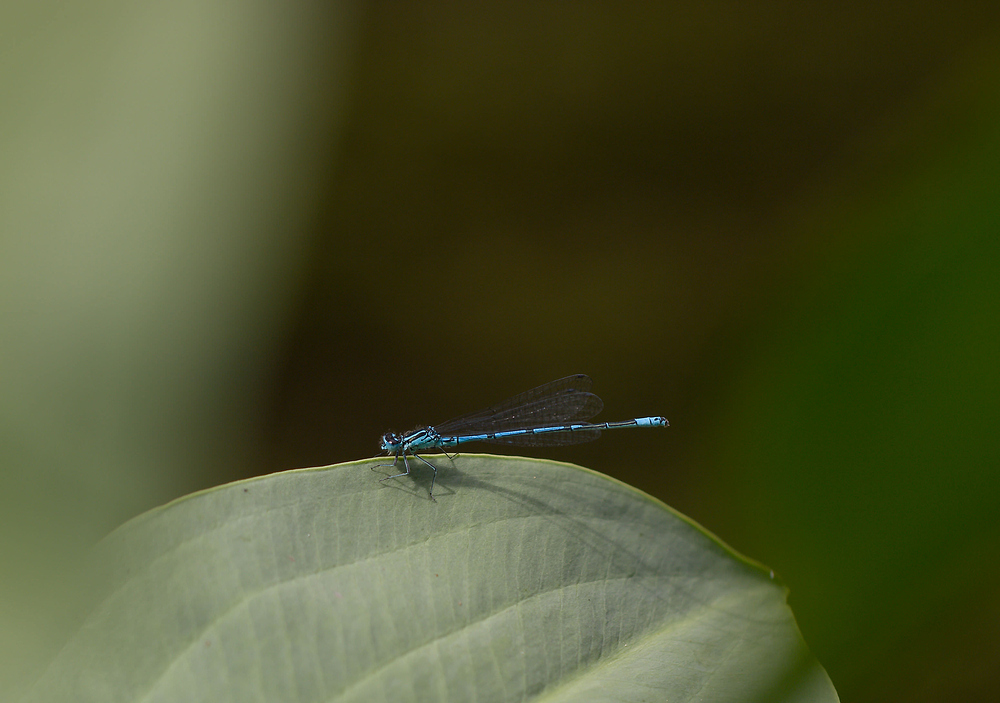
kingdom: Animalia
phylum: Arthropoda
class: Insecta
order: Odonata
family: Coenagrionidae
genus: Coenagrion
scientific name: Coenagrion puella
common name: Azure damselfly
